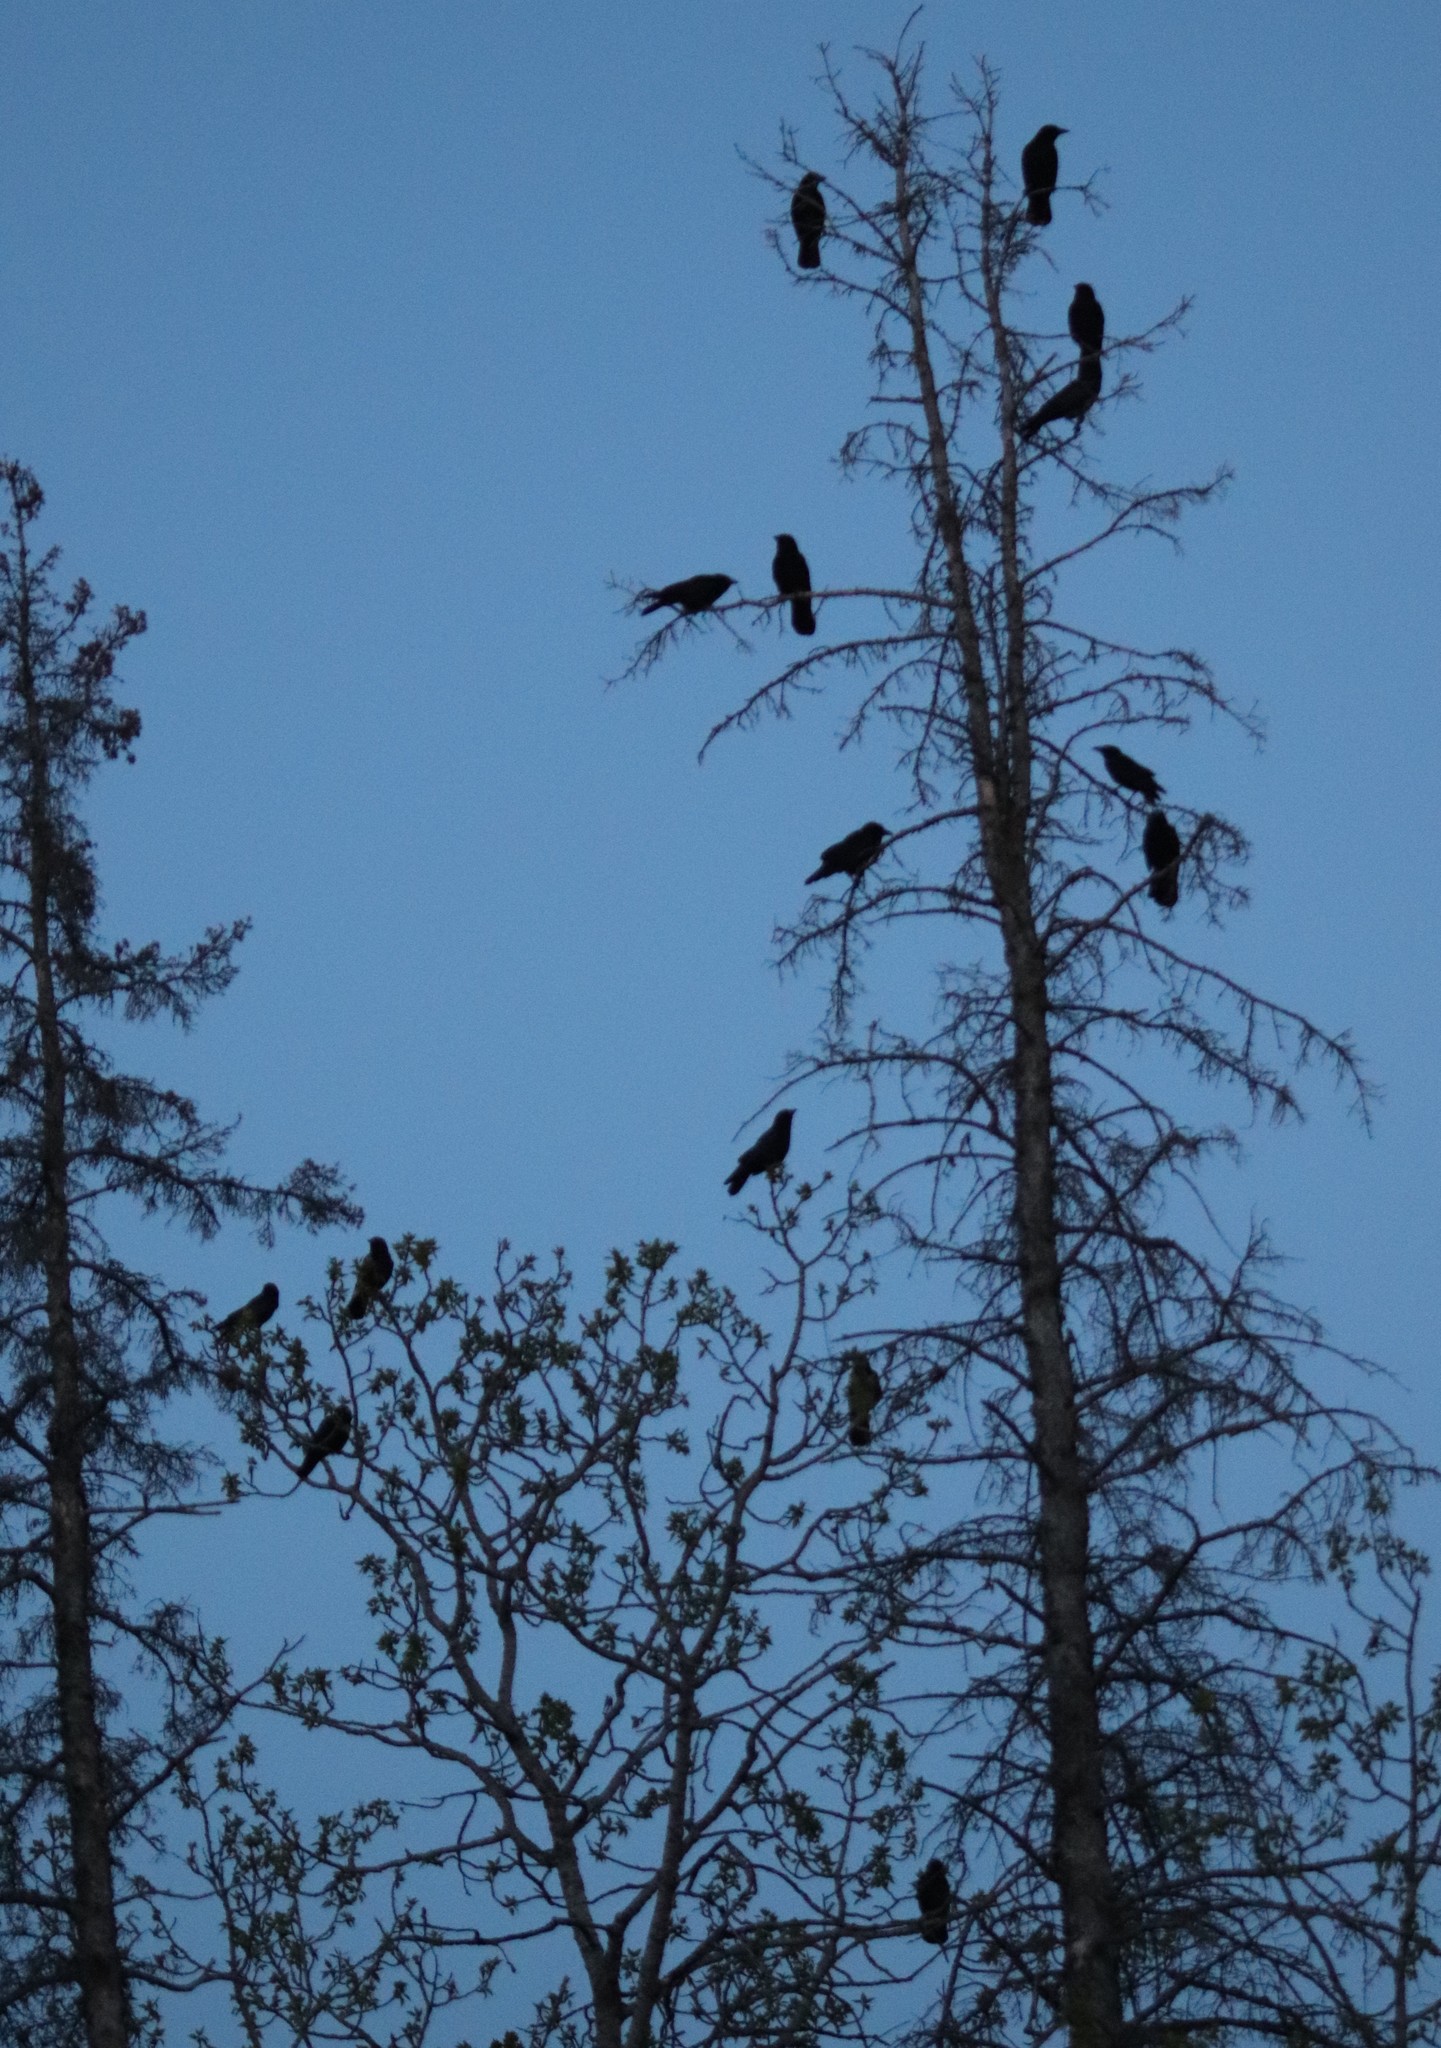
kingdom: Animalia
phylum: Chordata
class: Aves
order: Passeriformes
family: Corvidae
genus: Corvus
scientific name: Corvus brachyrhynchos
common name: American crow
